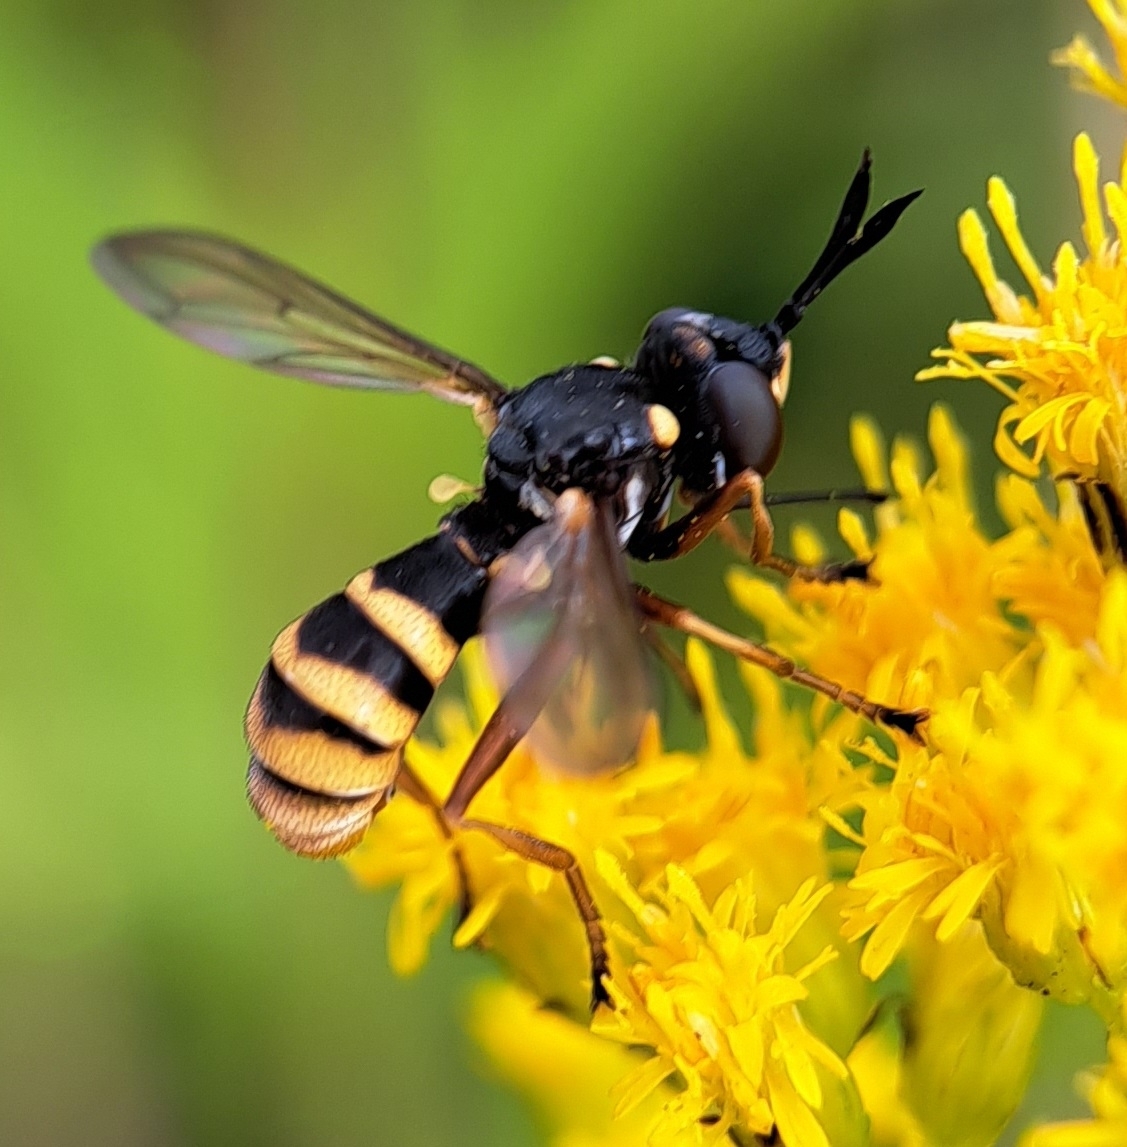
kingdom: Animalia
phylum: Arthropoda
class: Insecta
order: Diptera
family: Conopidae
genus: Conops
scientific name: Conops quadrifasciatus
